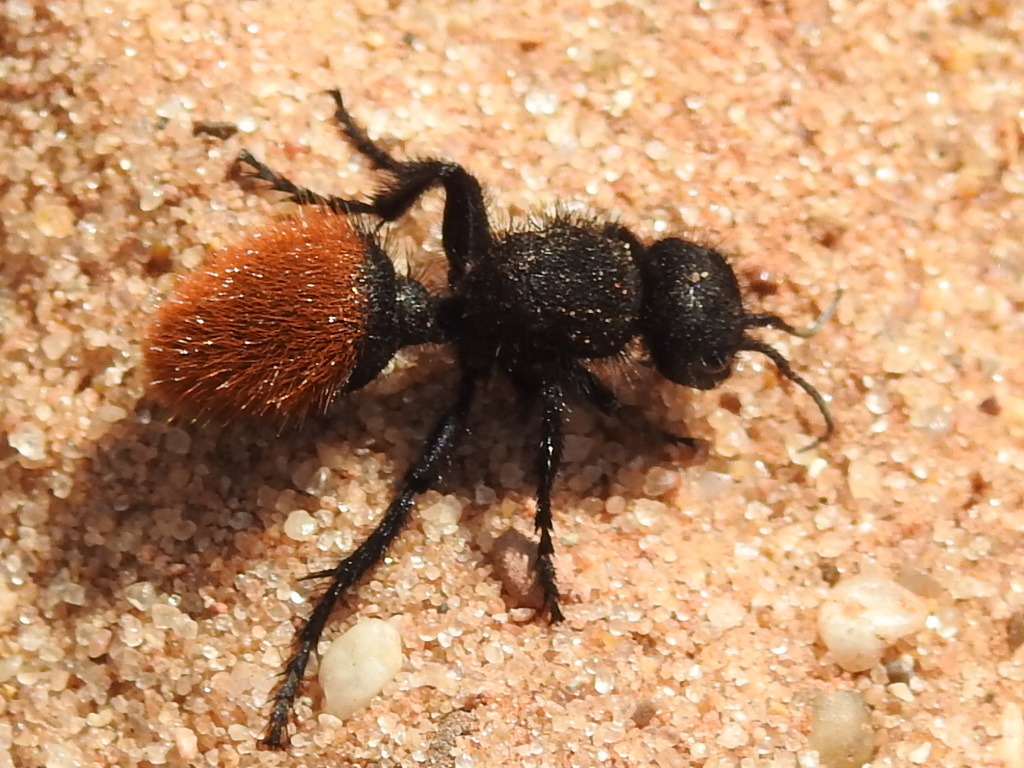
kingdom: Animalia
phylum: Arthropoda
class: Insecta
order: Hymenoptera
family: Mutillidae
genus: Dasymutilla
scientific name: Dasymutilla gorgon
